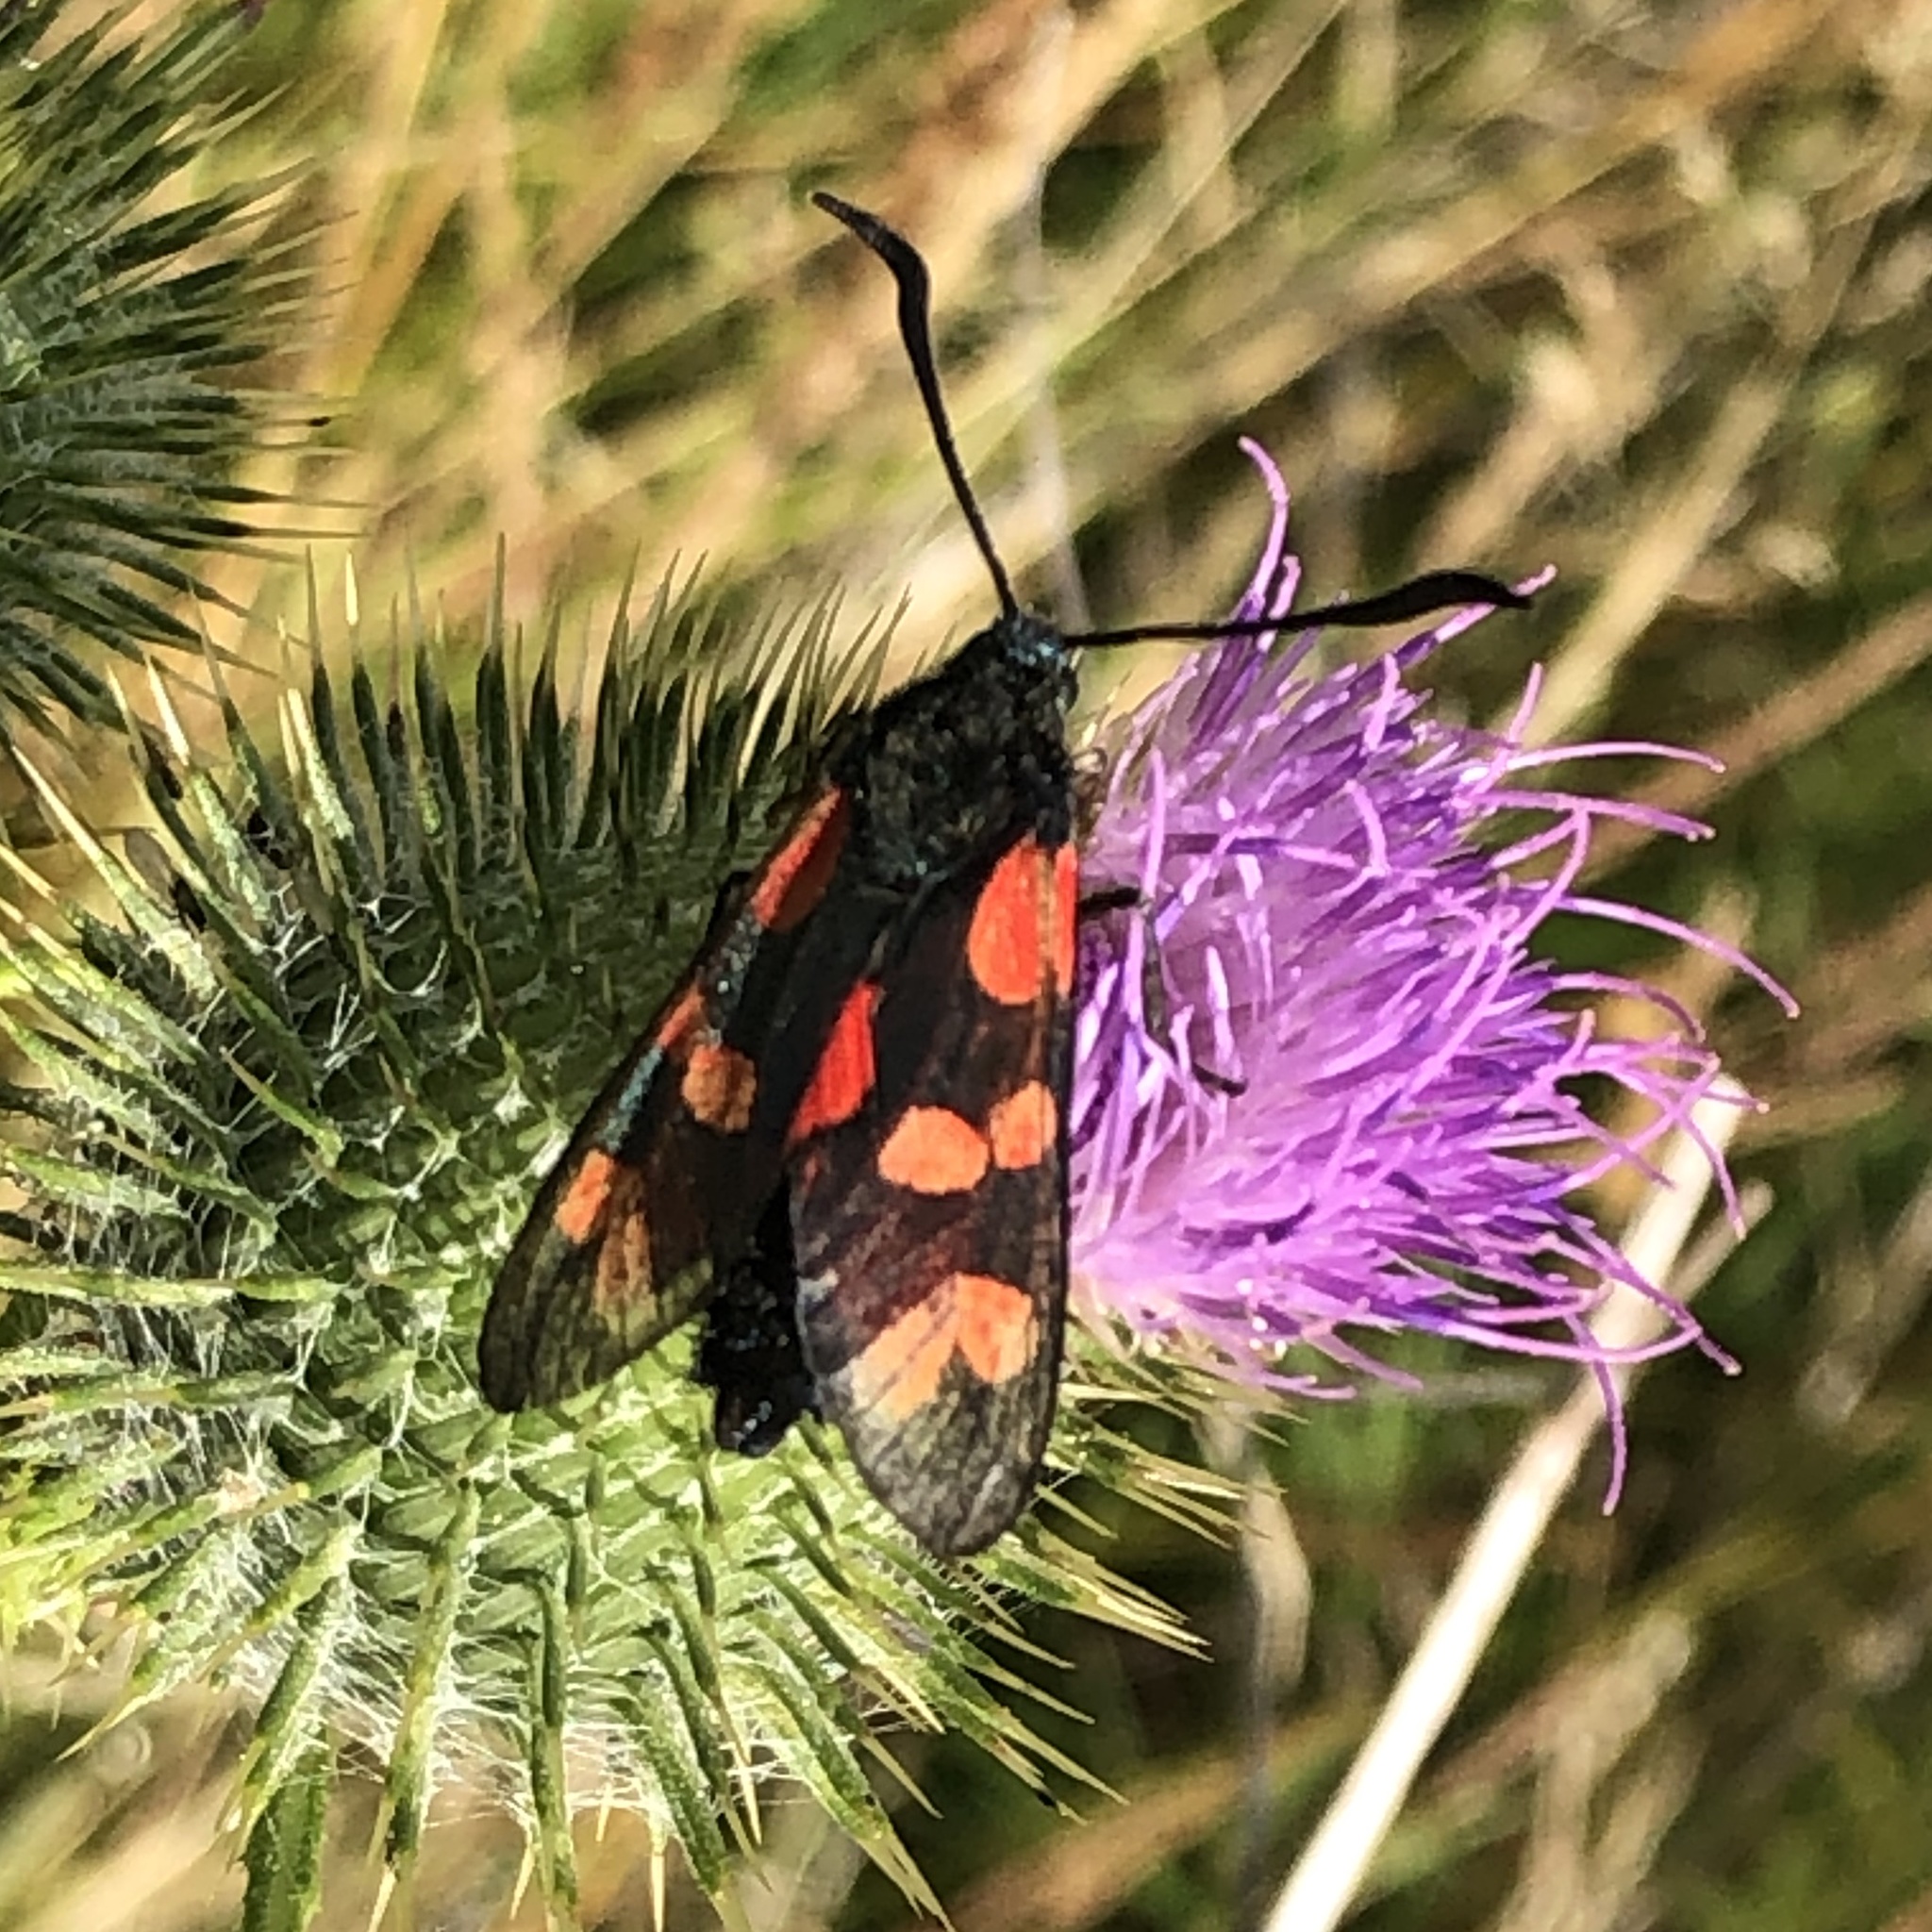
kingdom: Animalia
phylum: Arthropoda
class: Insecta
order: Lepidoptera
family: Zygaenidae
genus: Zygaena
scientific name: Zygaena filipendulae
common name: Six-spot burnet
